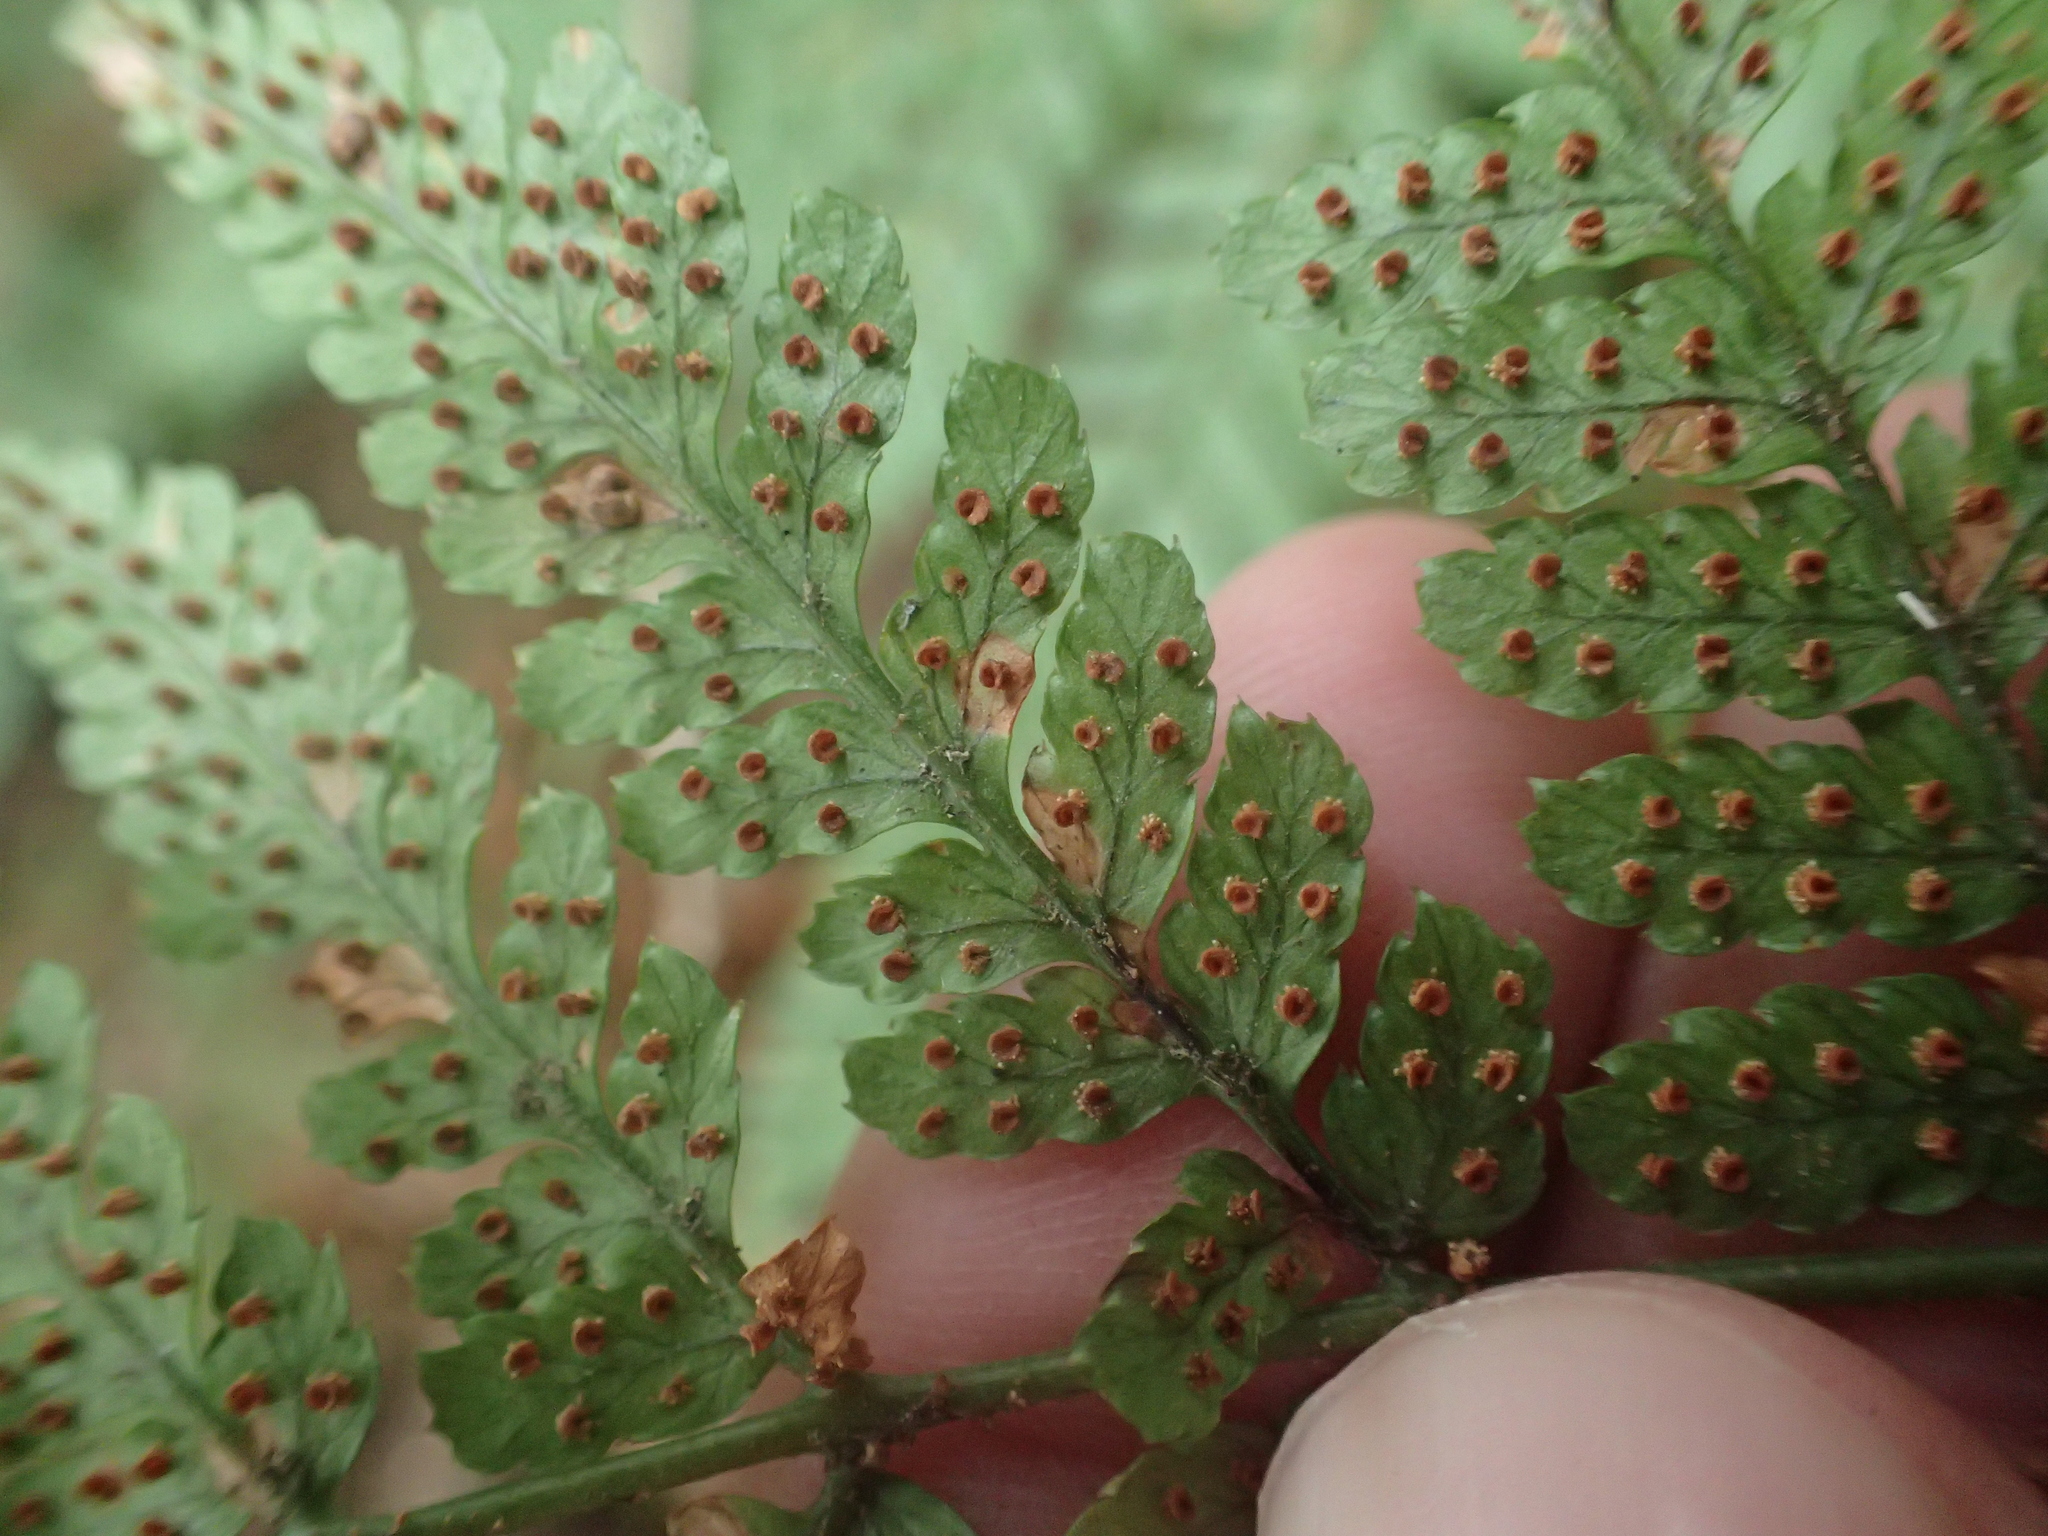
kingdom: Plantae
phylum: Tracheophyta
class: Polypodiopsida
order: Polypodiales
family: Dryopteridaceae
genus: Dryopteris
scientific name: Dryopteris formosana
